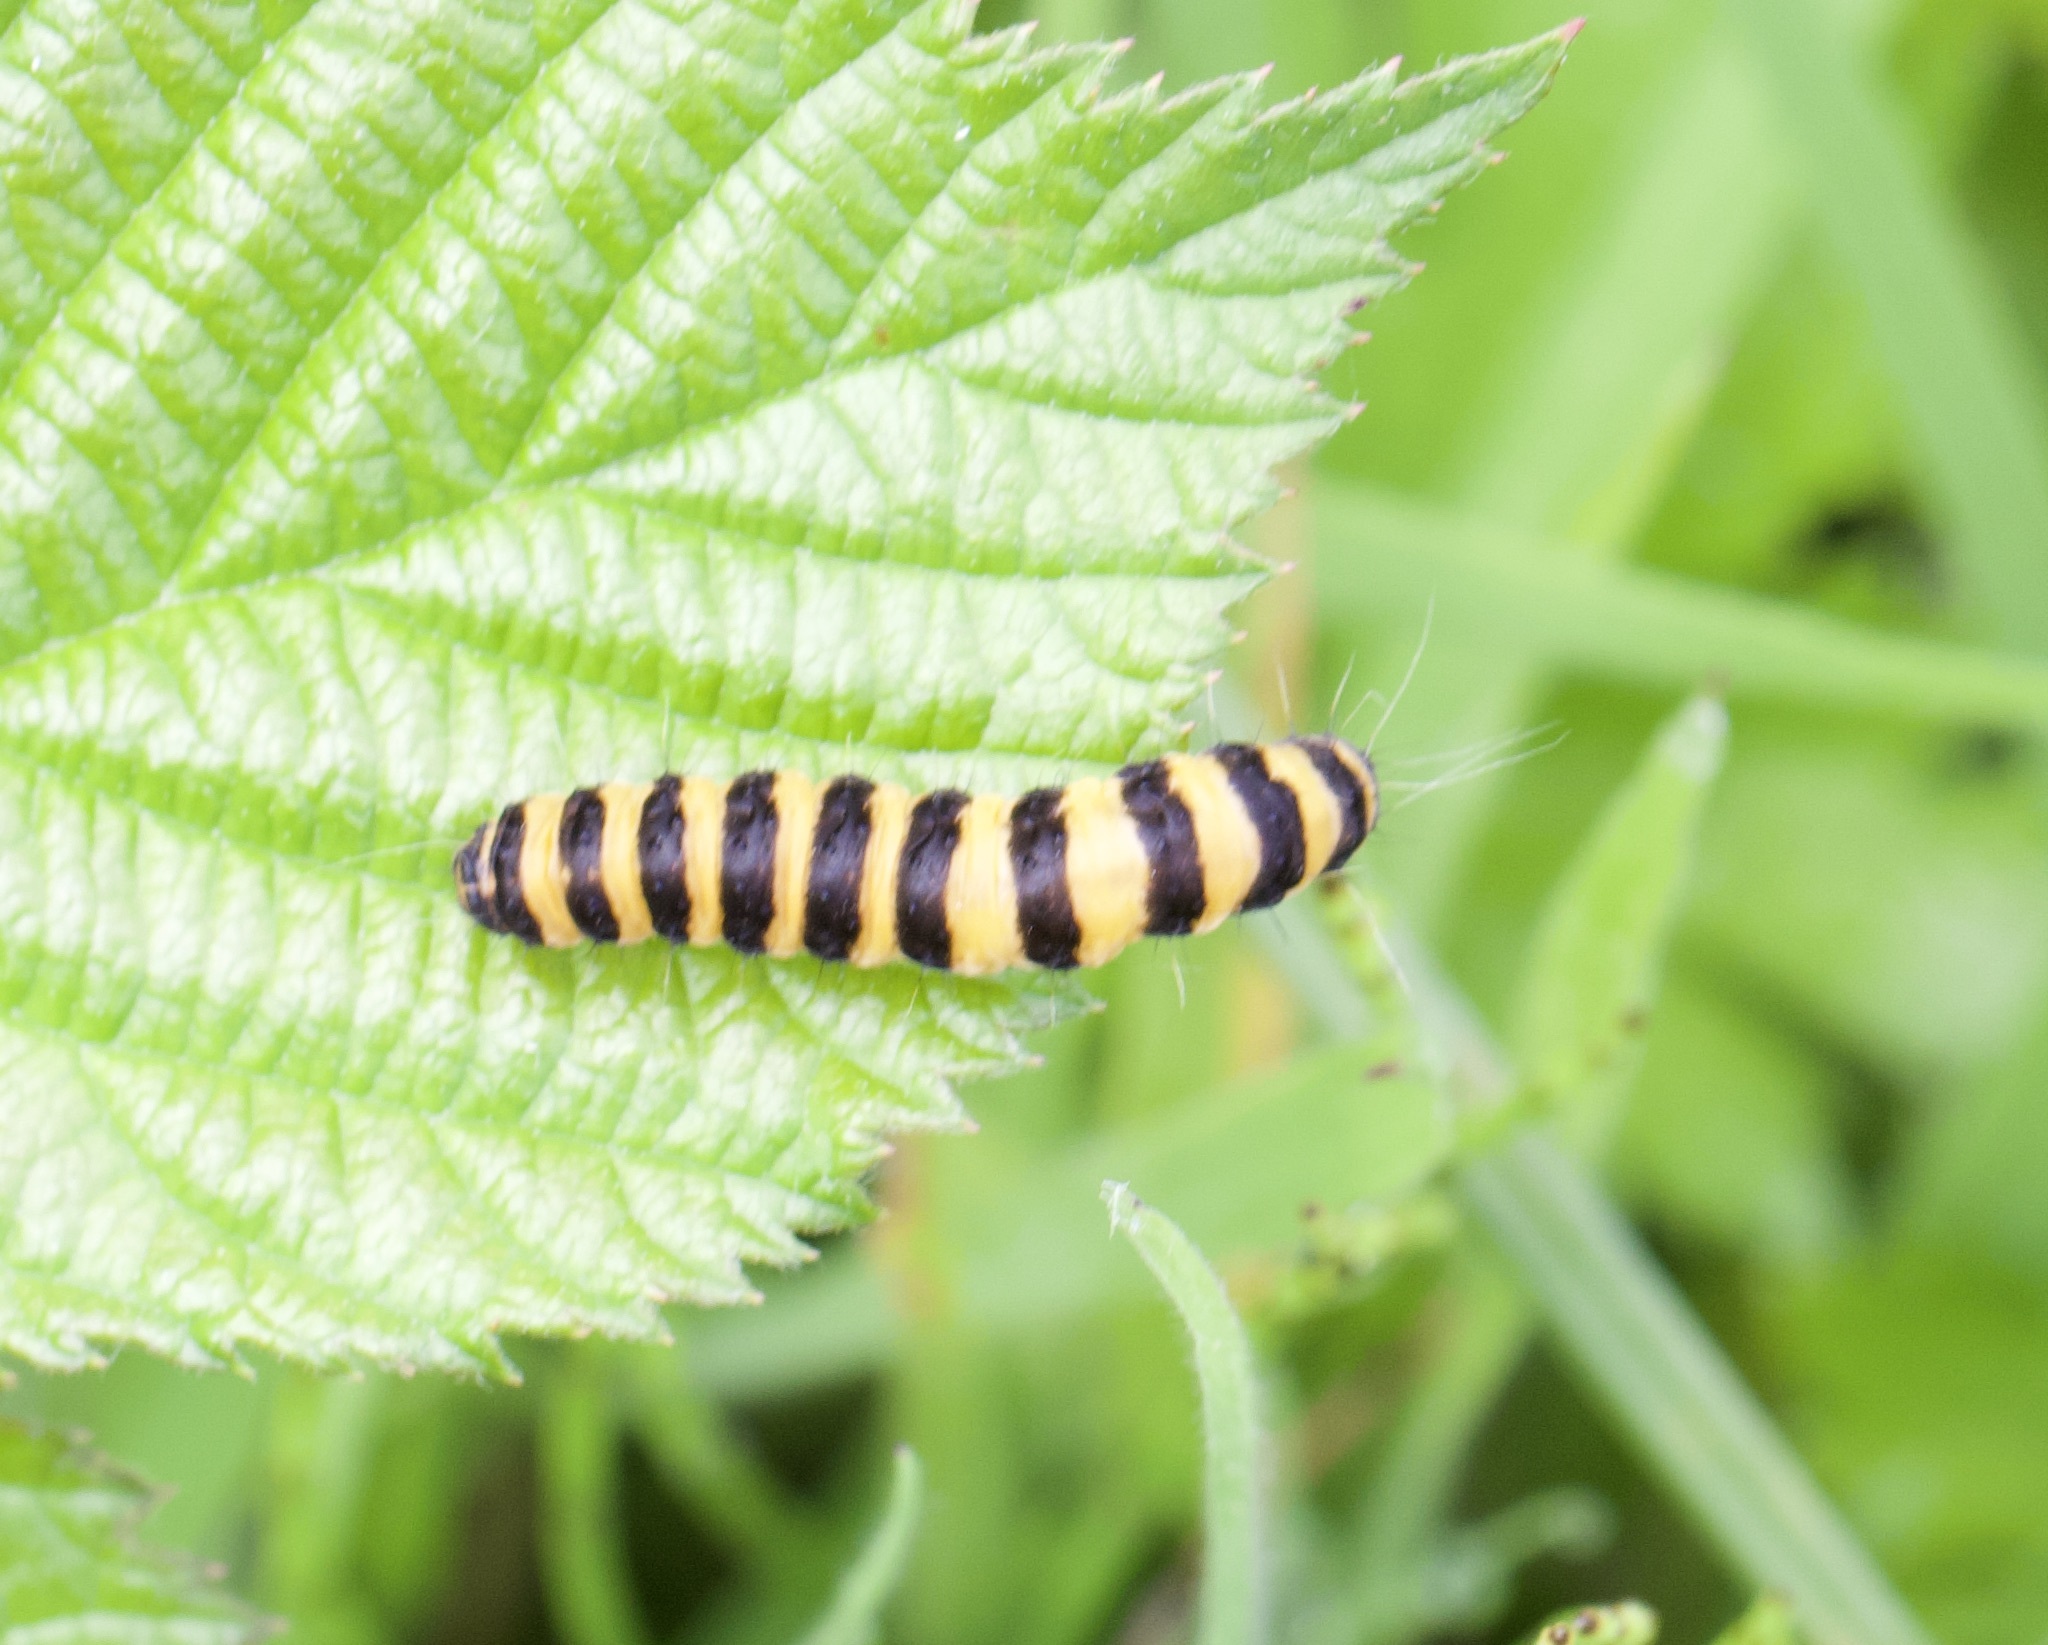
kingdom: Animalia
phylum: Arthropoda
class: Insecta
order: Lepidoptera
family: Erebidae
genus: Tyria
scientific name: Tyria jacobaeae
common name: Cinnabar
